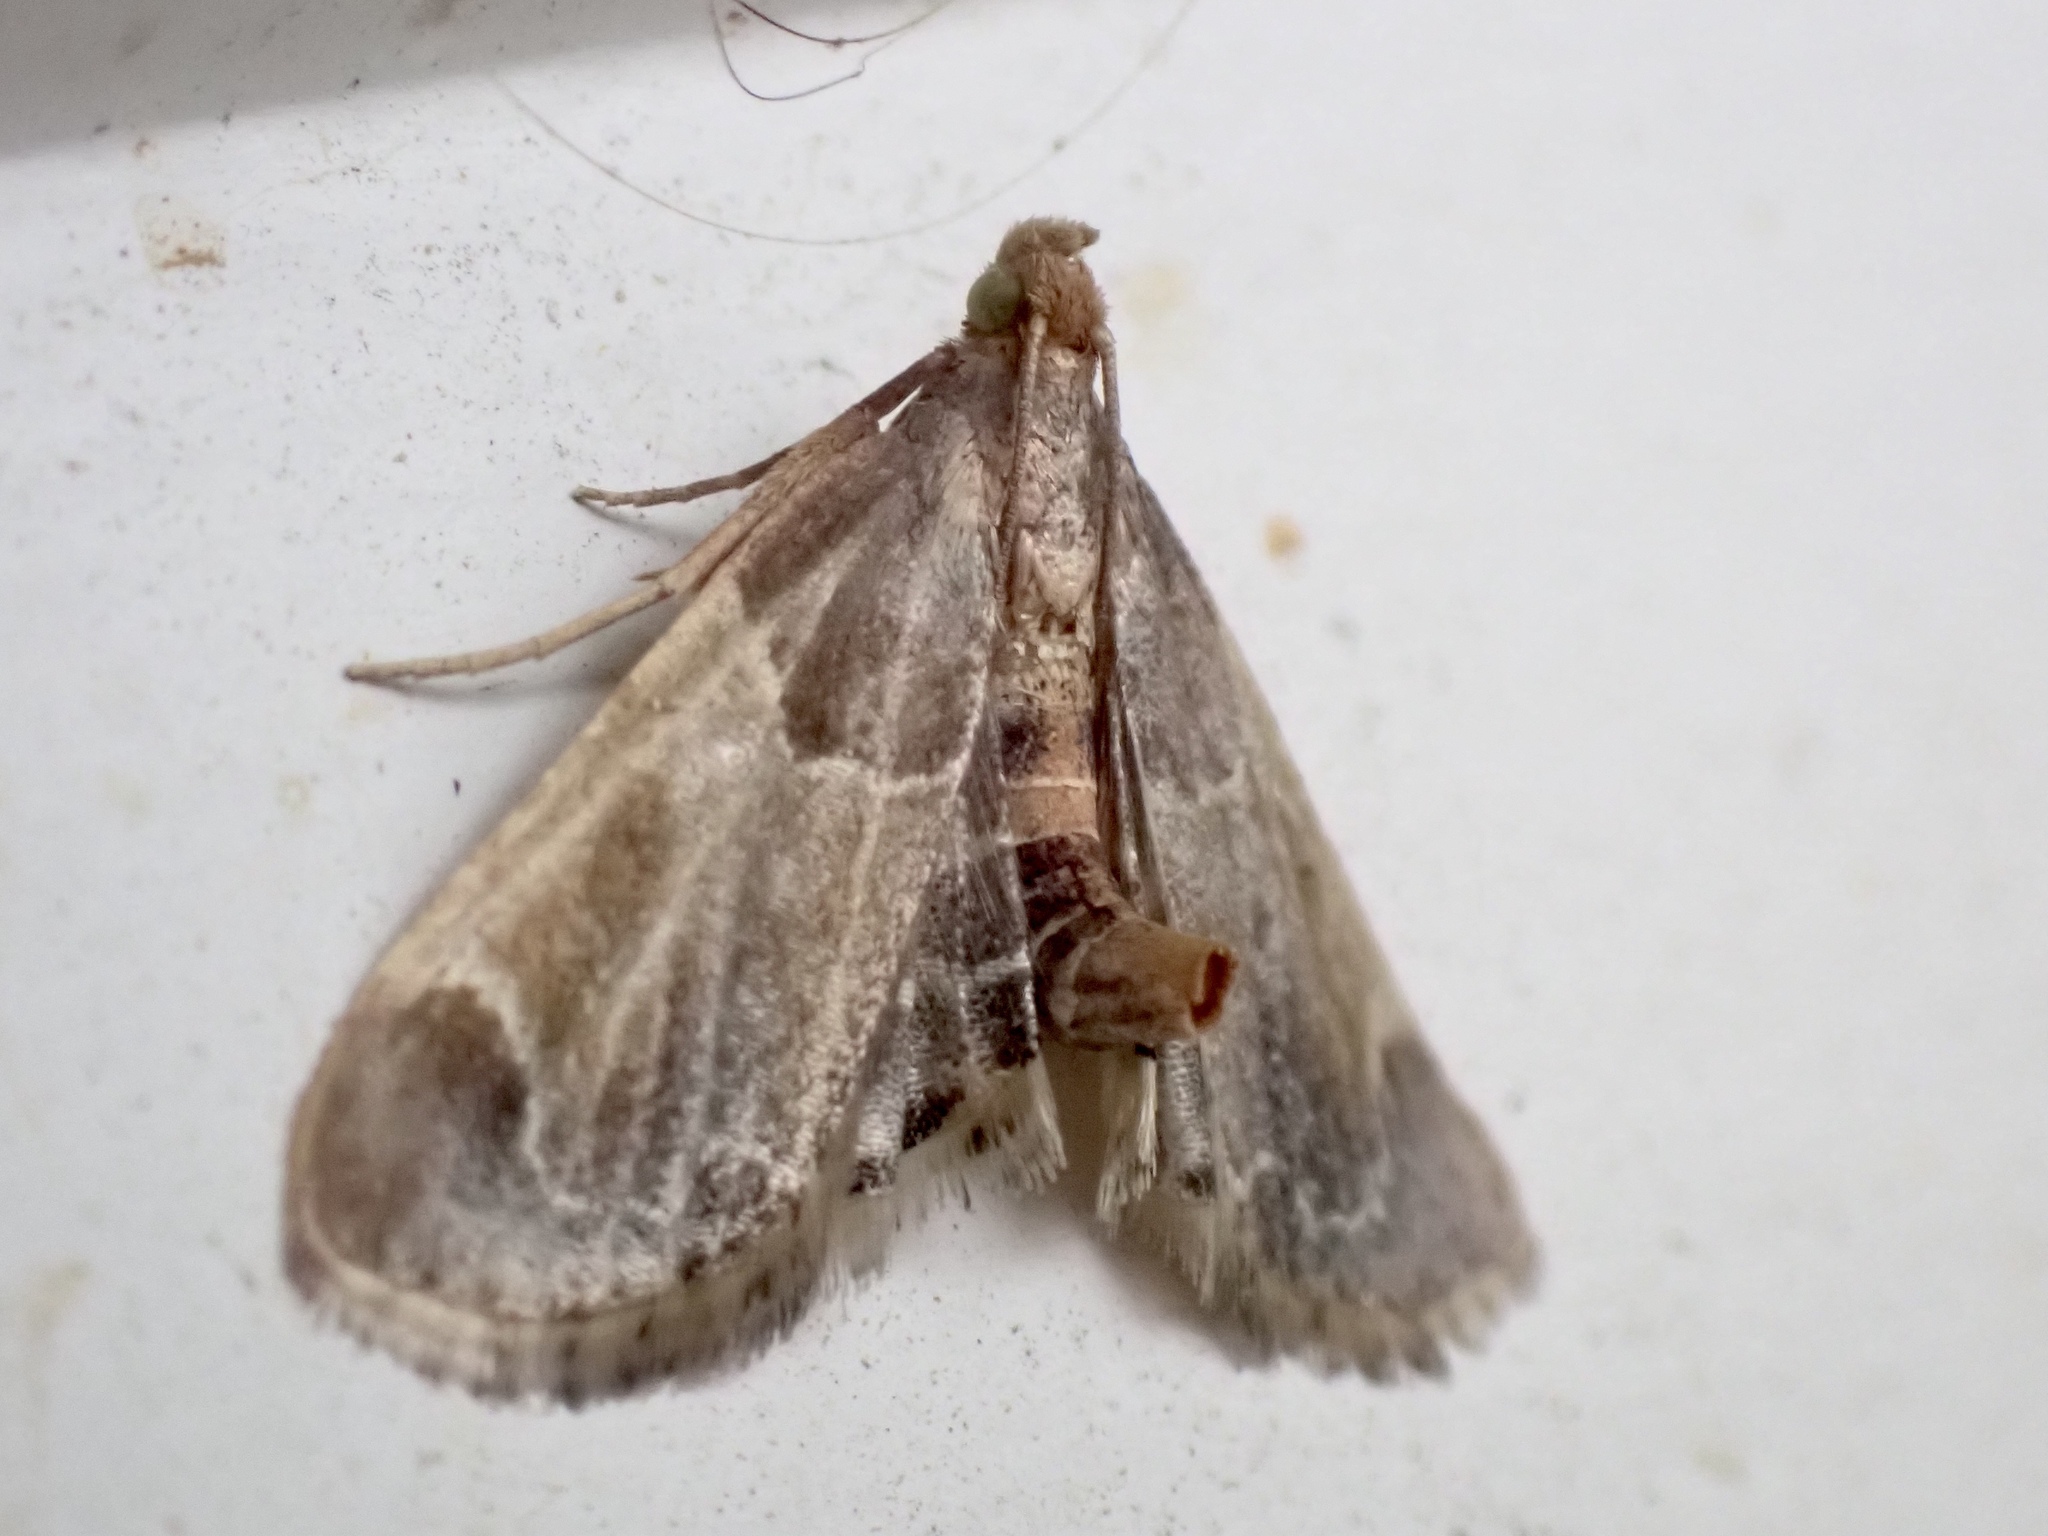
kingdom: Animalia
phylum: Arthropoda
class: Insecta
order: Lepidoptera
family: Pyralidae
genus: Pyralis
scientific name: Pyralis farinalis
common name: Meal moth
